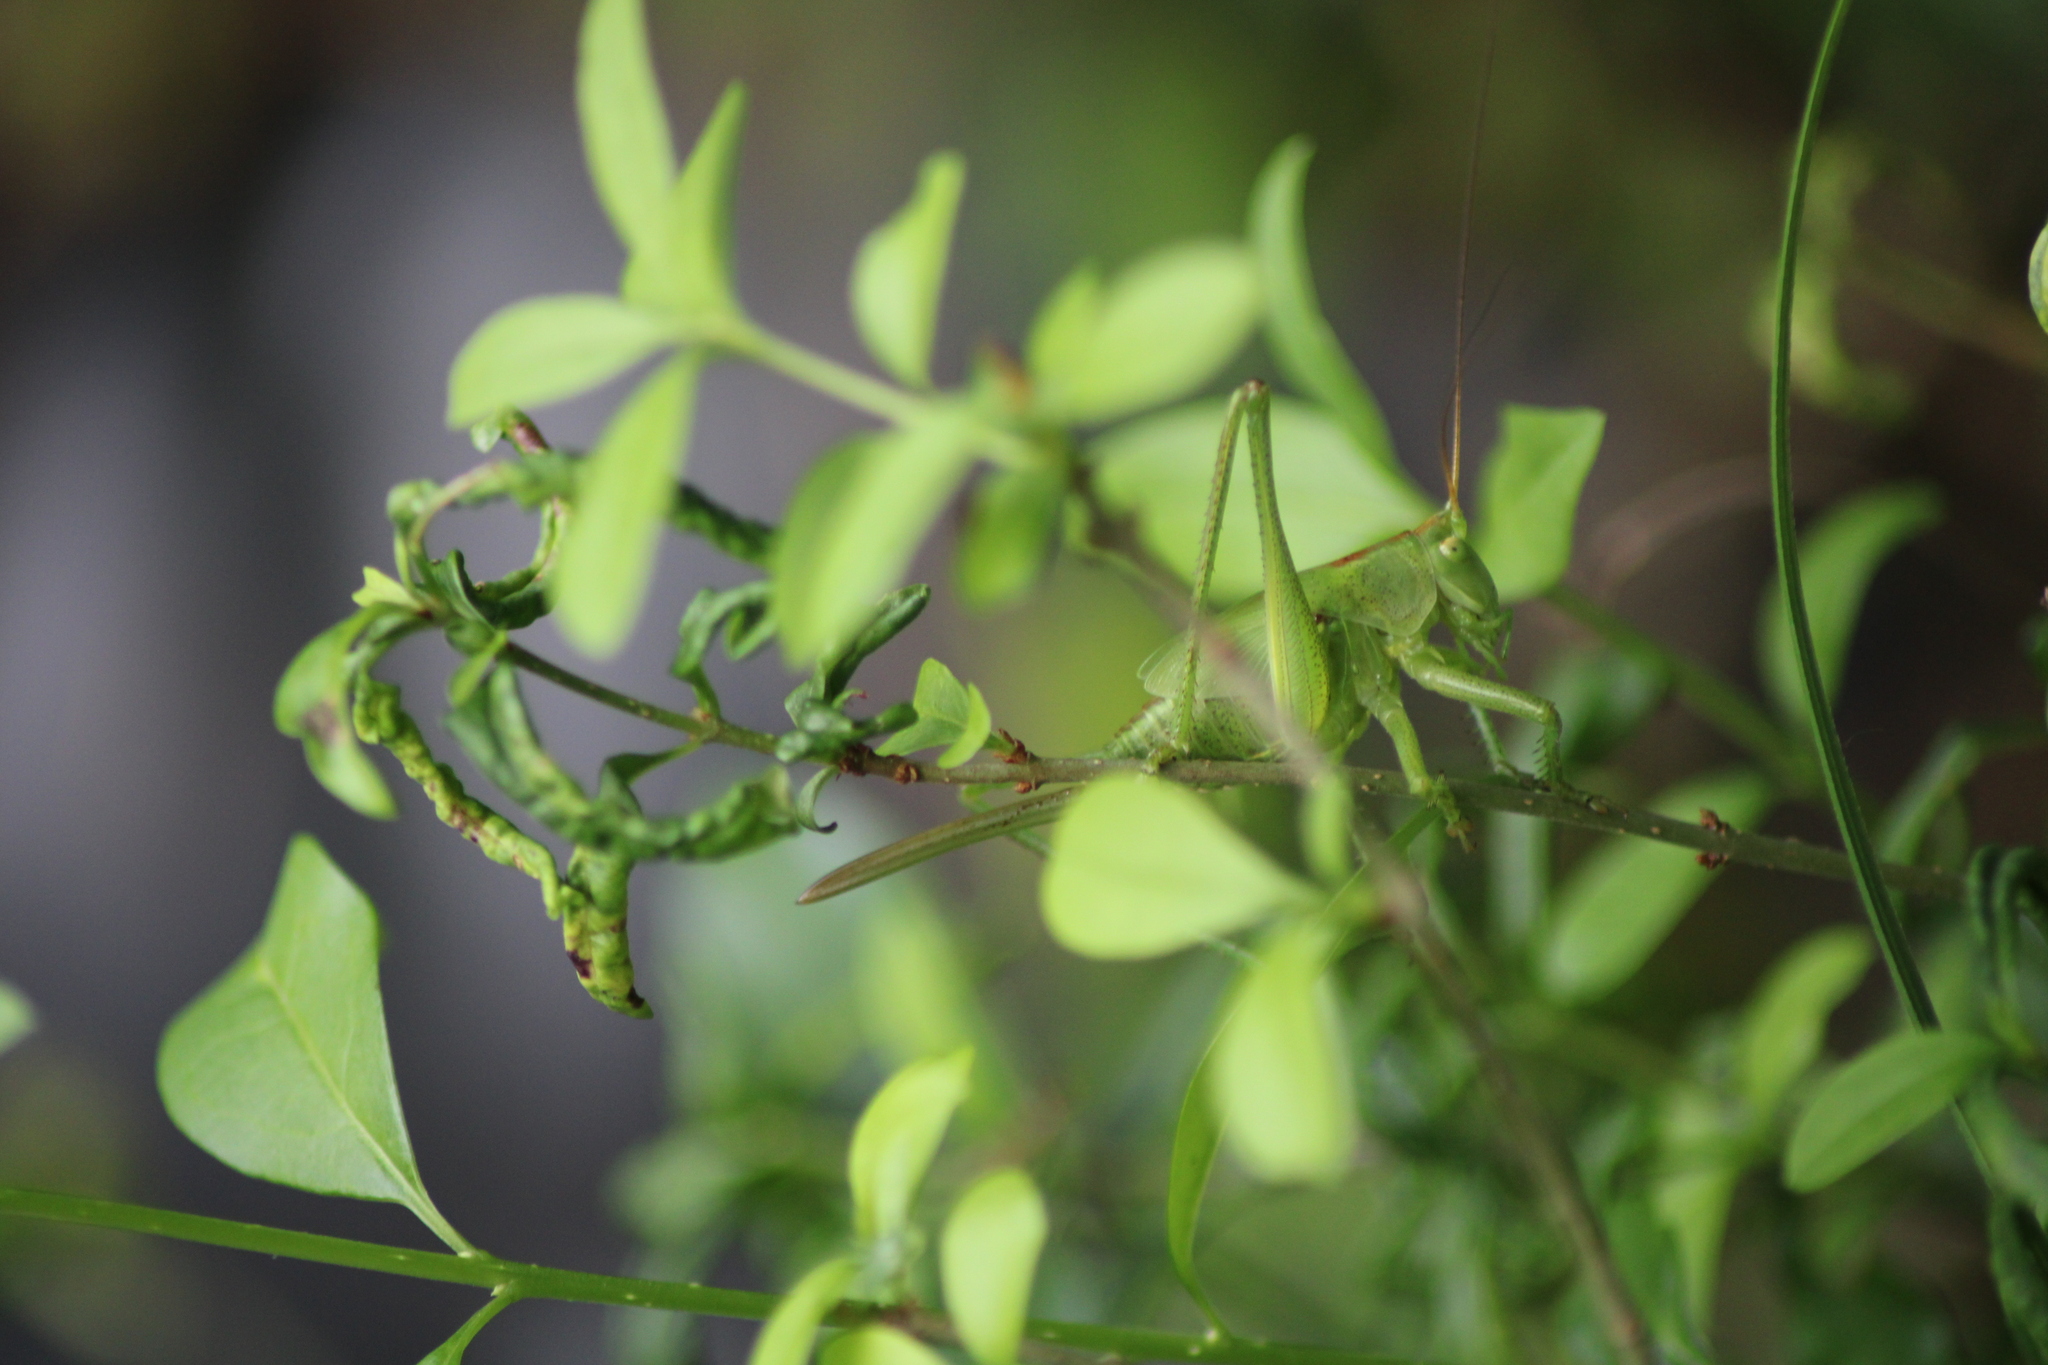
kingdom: Animalia
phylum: Arthropoda
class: Insecta
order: Orthoptera
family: Tettigoniidae
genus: Tettigonia
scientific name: Tettigonia viridissima
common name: Great green bush-cricket
